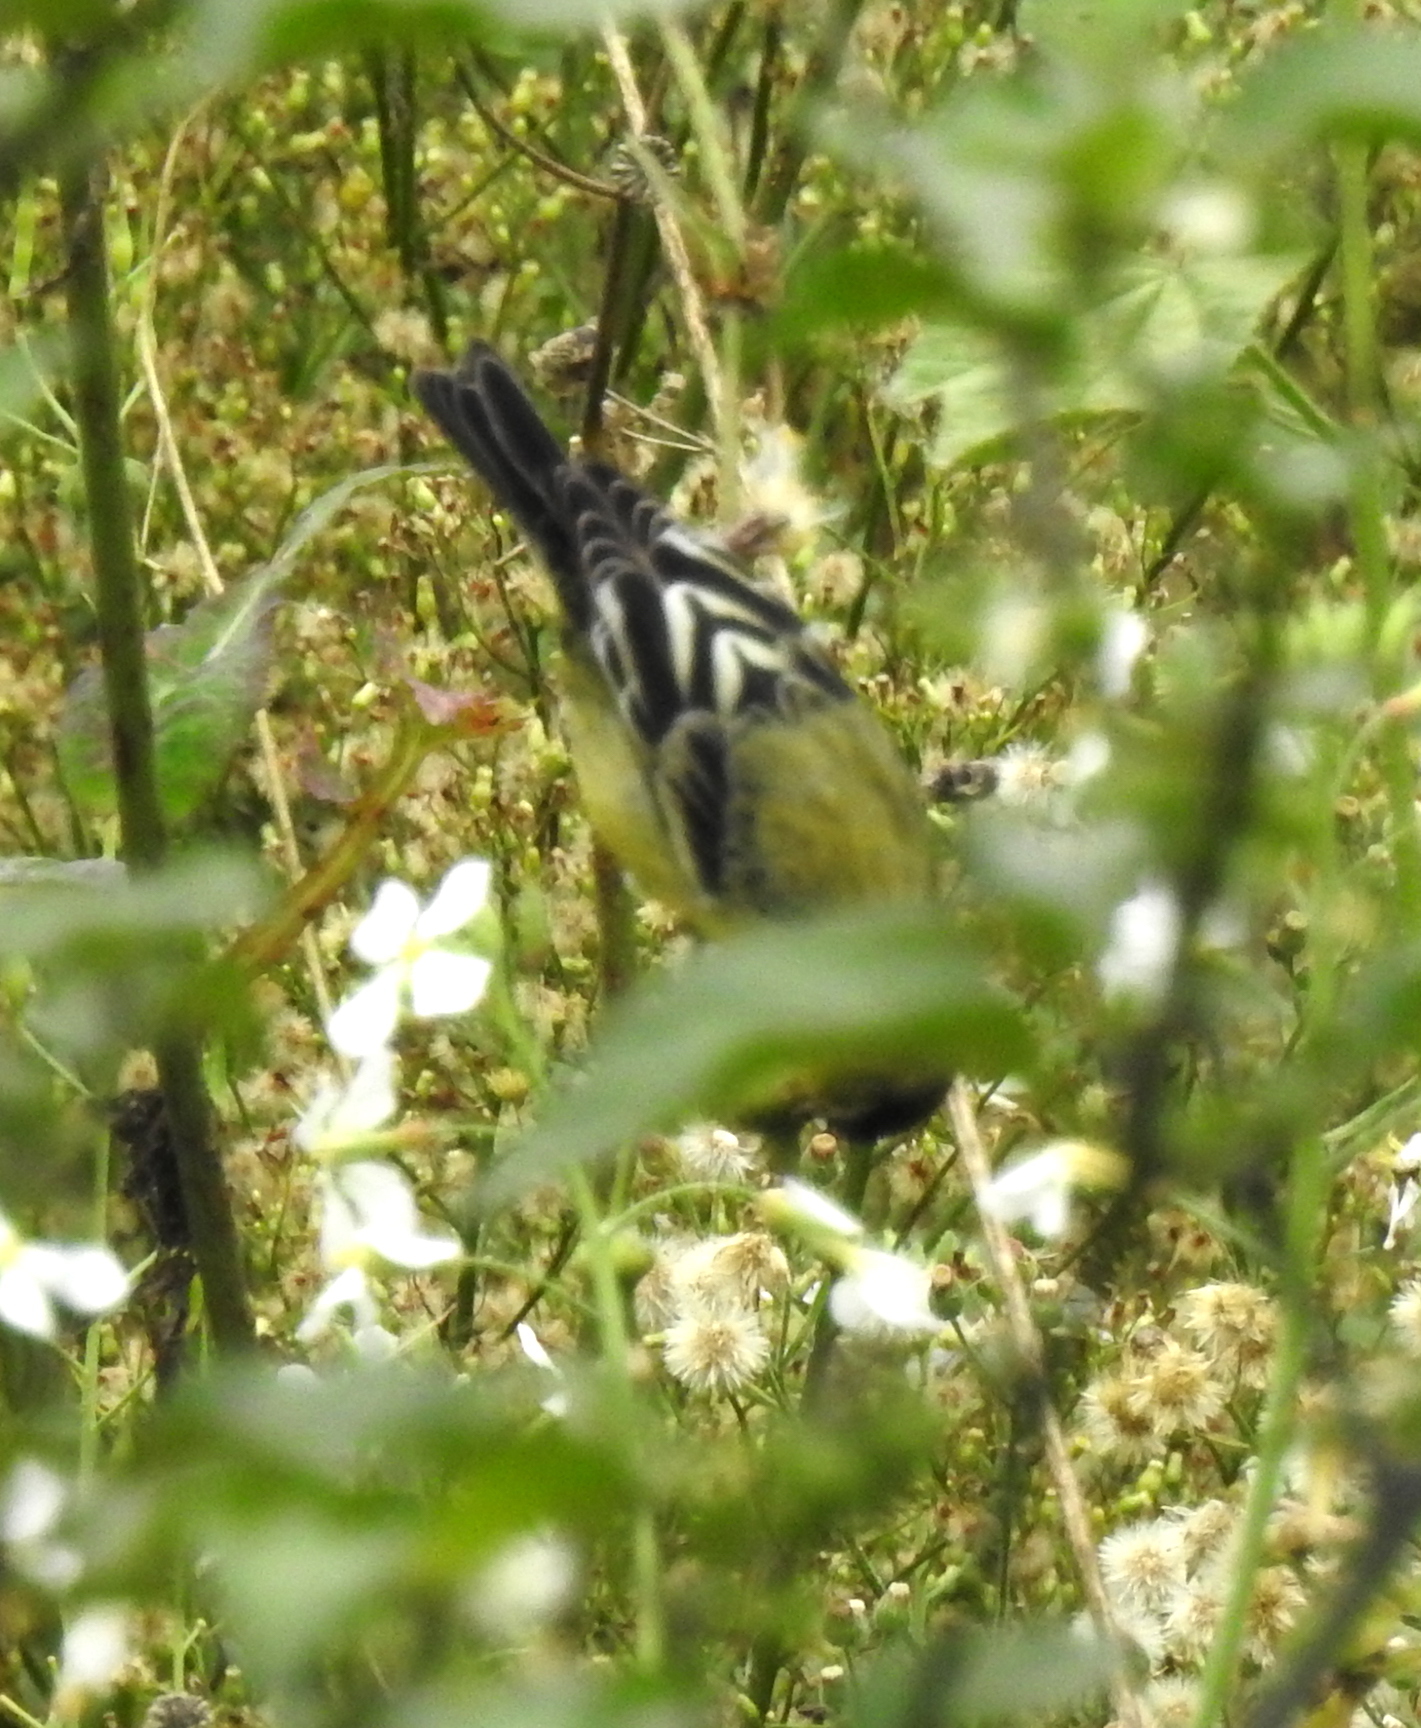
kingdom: Animalia
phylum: Chordata
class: Aves
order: Passeriformes
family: Fringillidae
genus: Spinus
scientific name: Spinus psaltria
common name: Lesser goldfinch
